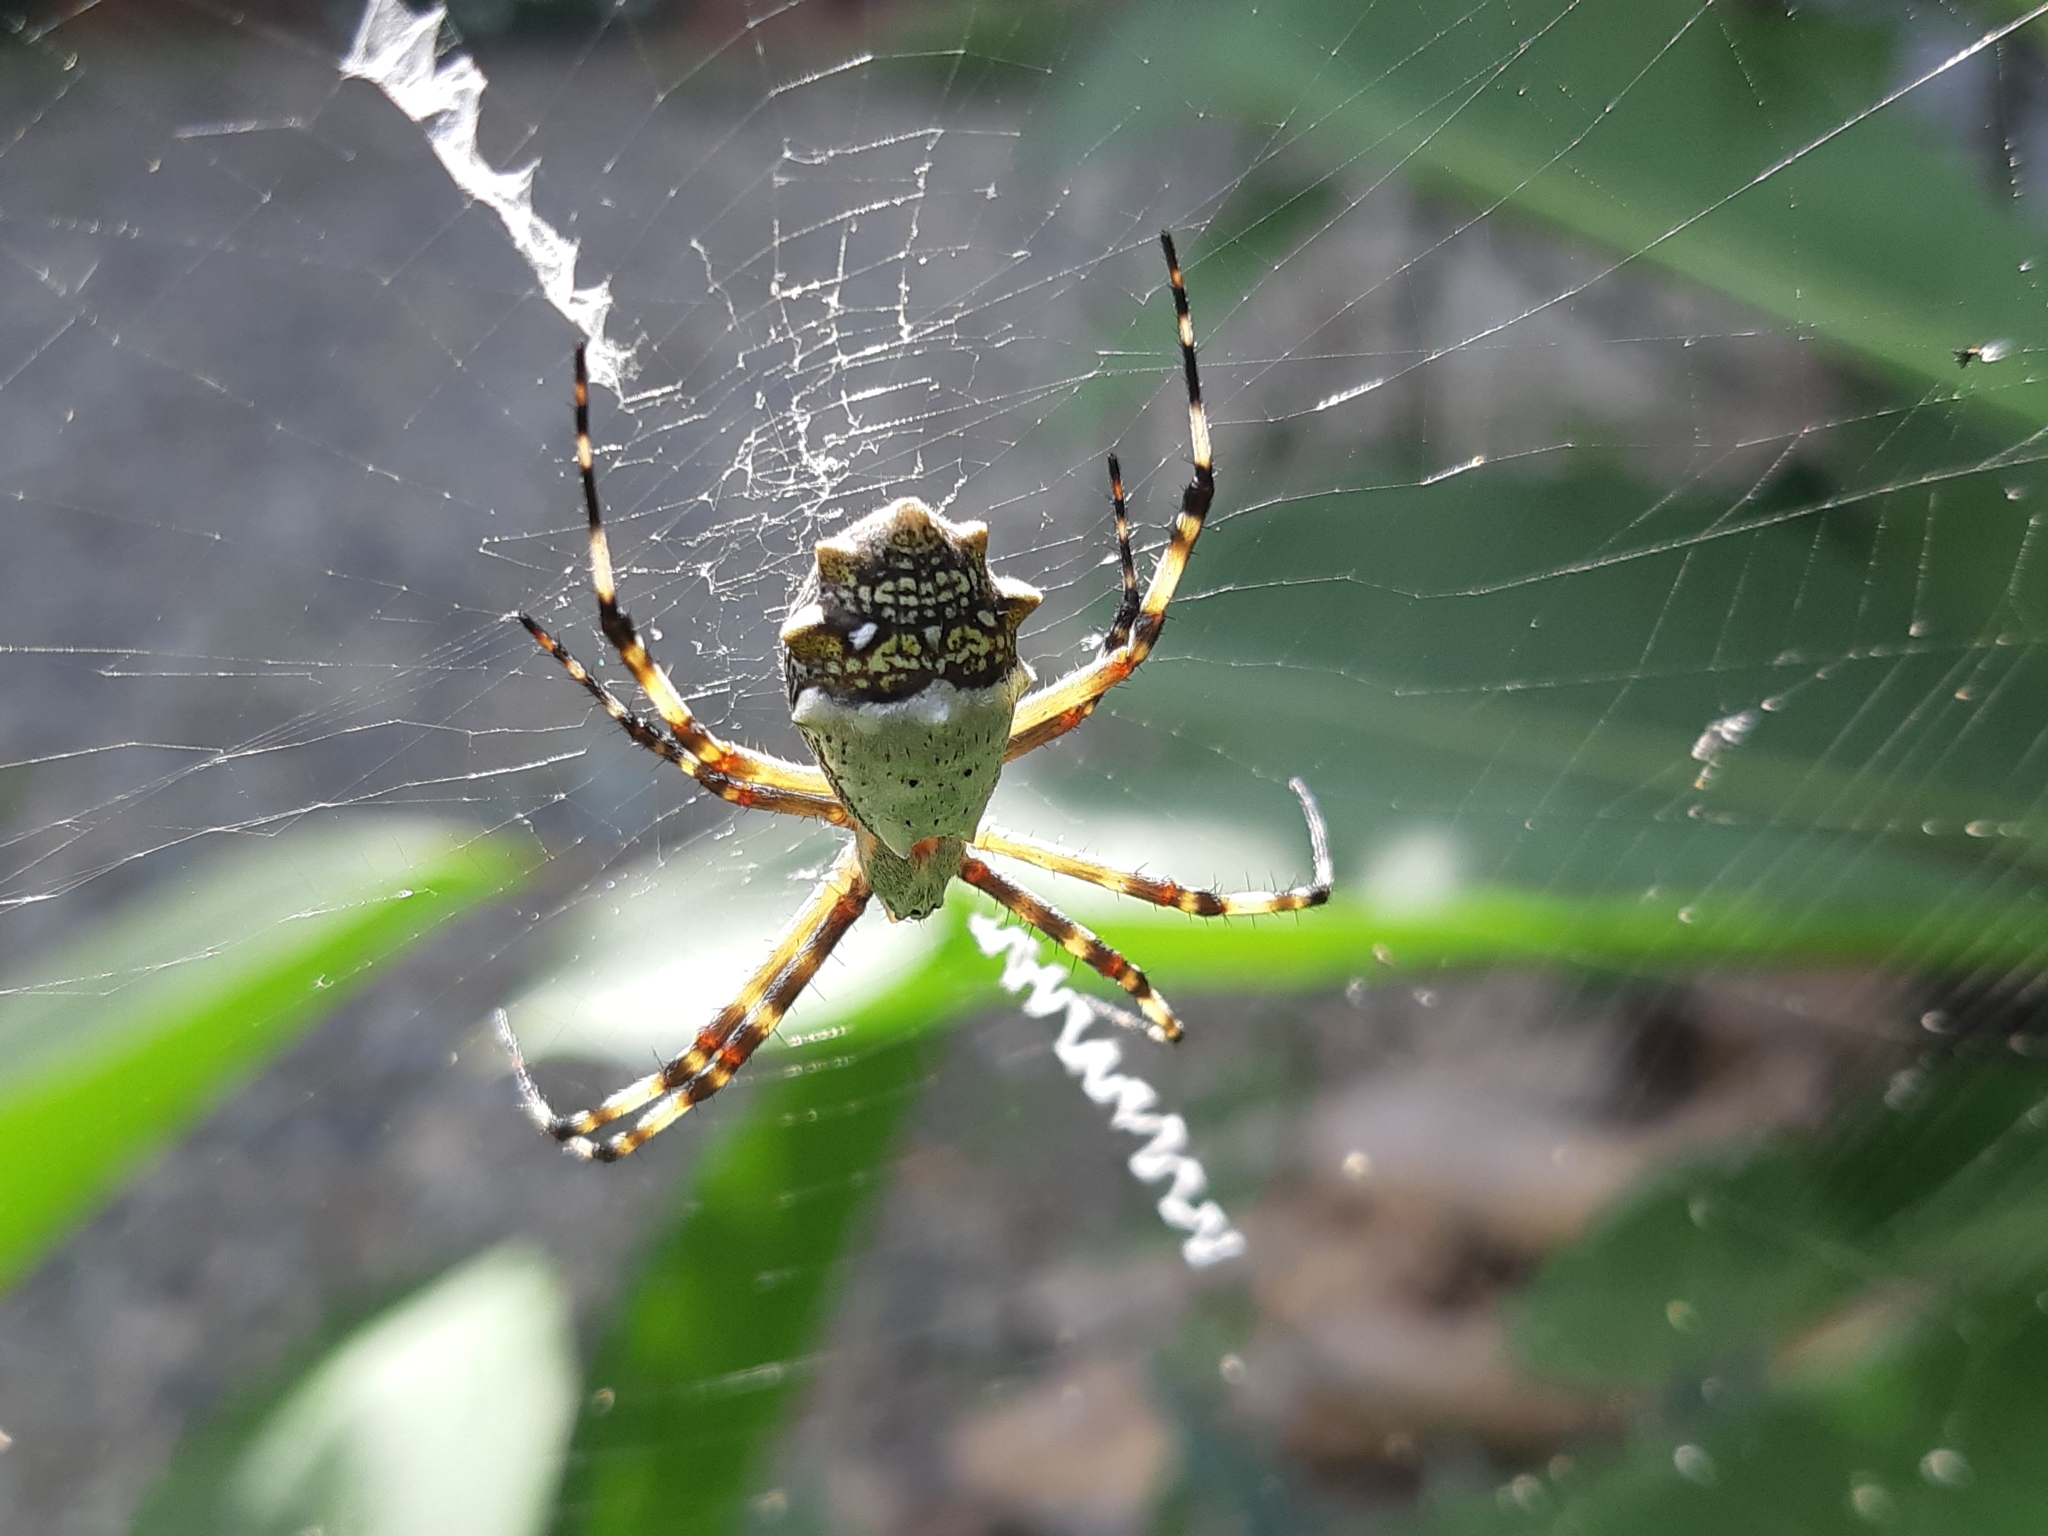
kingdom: Animalia
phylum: Arthropoda
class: Arachnida
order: Araneae
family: Araneidae
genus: Argiope
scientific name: Argiope argentata
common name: Orb weavers
